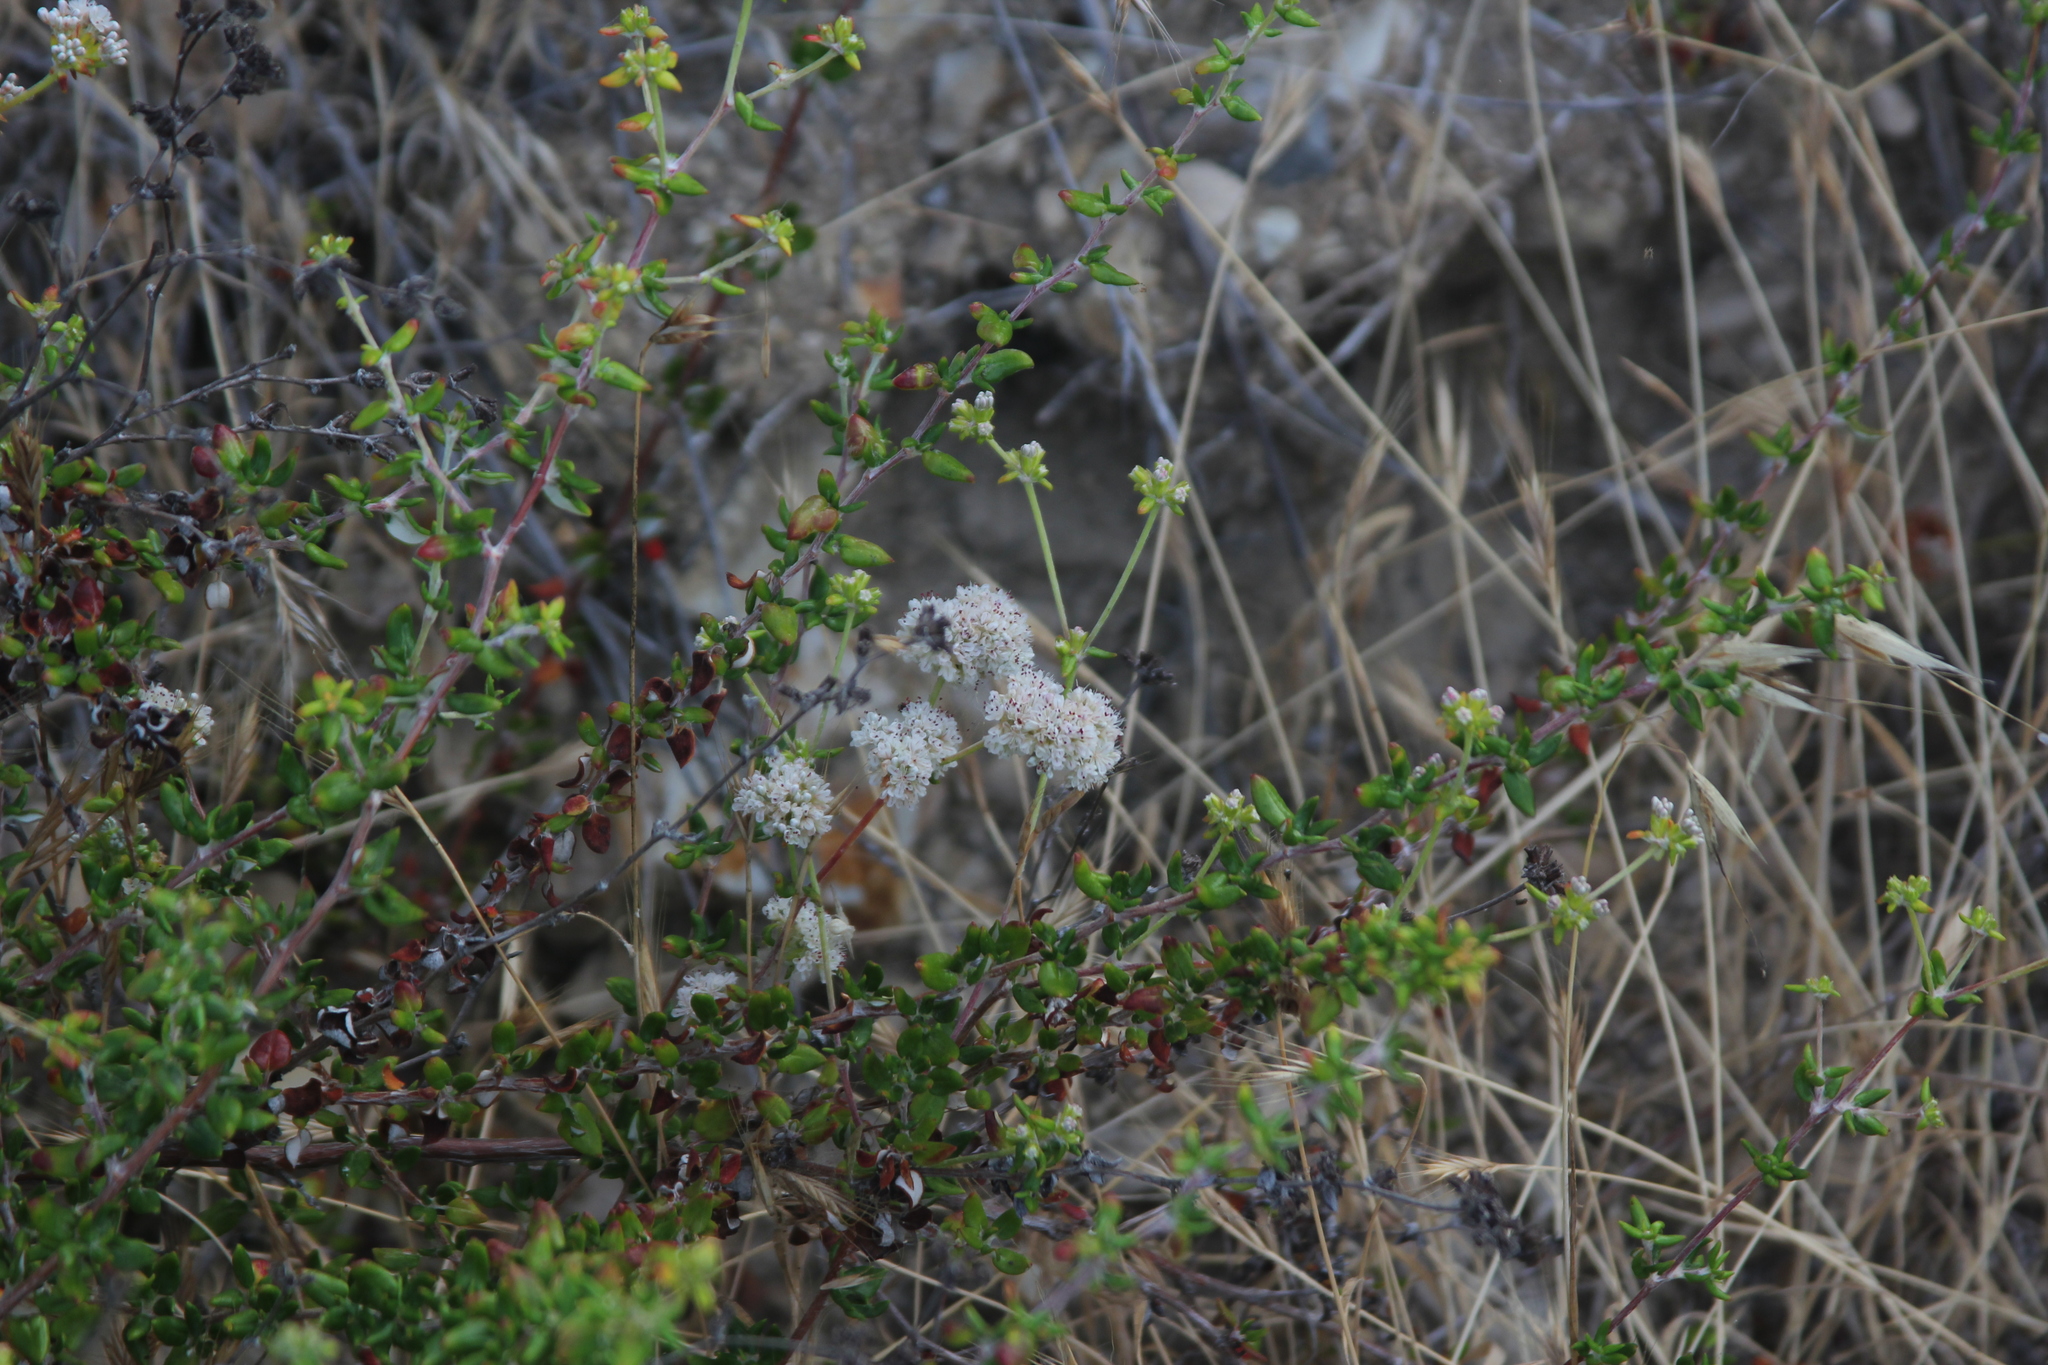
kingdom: Plantae
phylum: Tracheophyta
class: Magnoliopsida
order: Caryophyllales
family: Polygonaceae
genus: Eriogonum
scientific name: Eriogonum parvifolium
